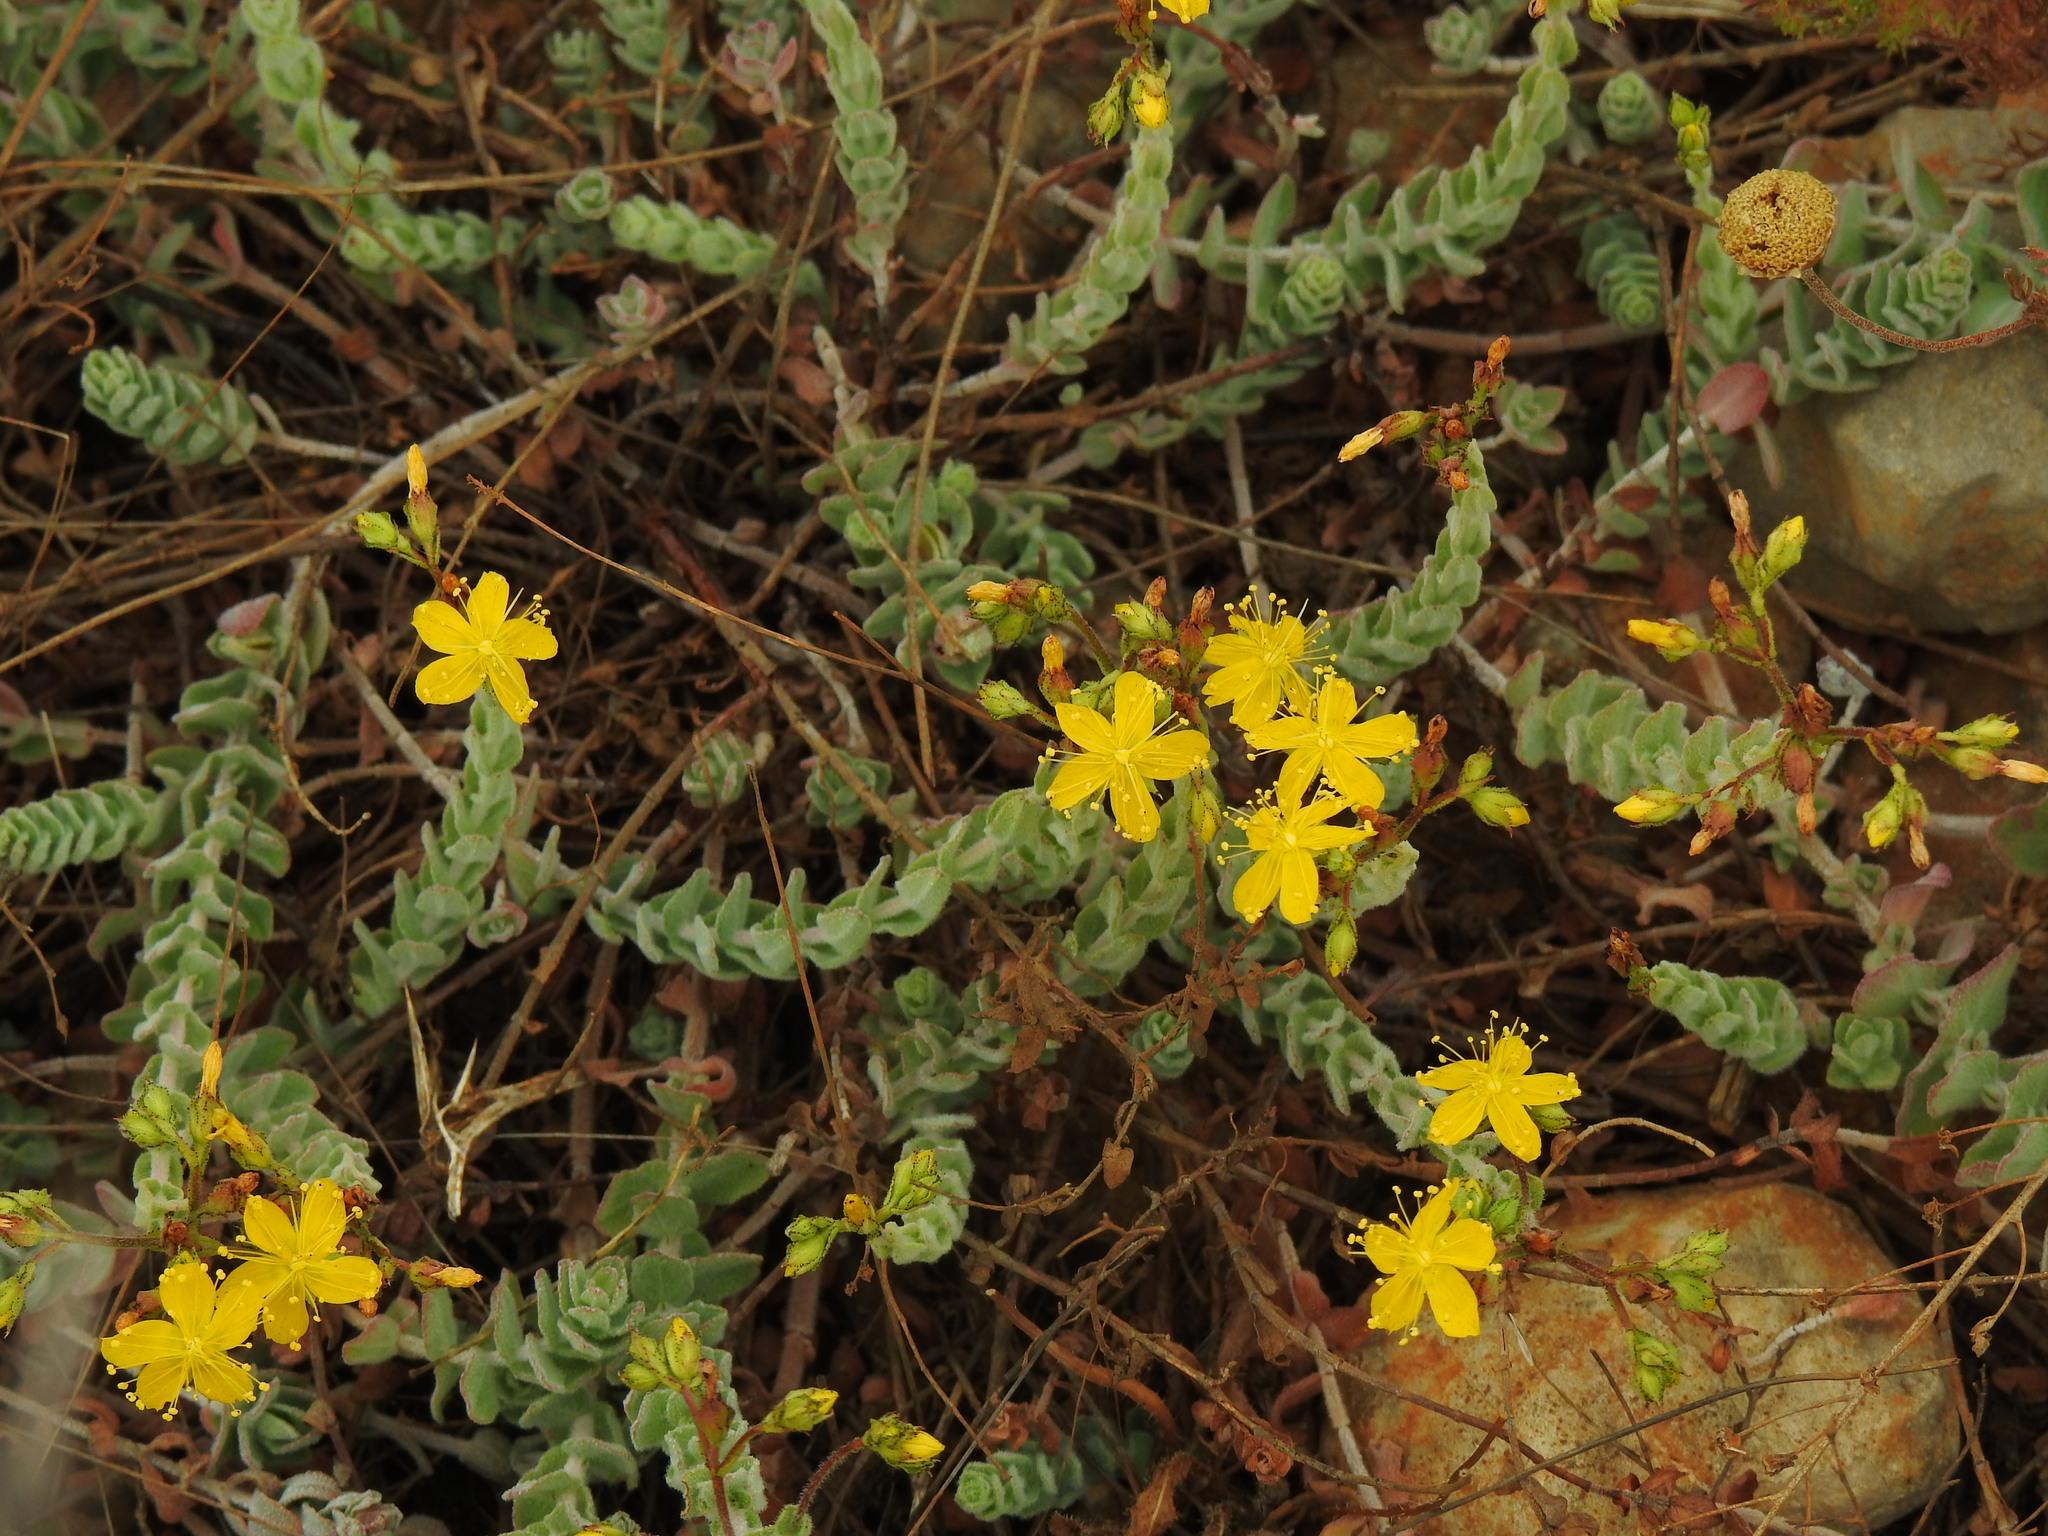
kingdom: Plantae
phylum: Tracheophyta
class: Magnoliopsida
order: Malpighiales
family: Hypericaceae
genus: Hypericum
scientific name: Hypericum tomentosum
